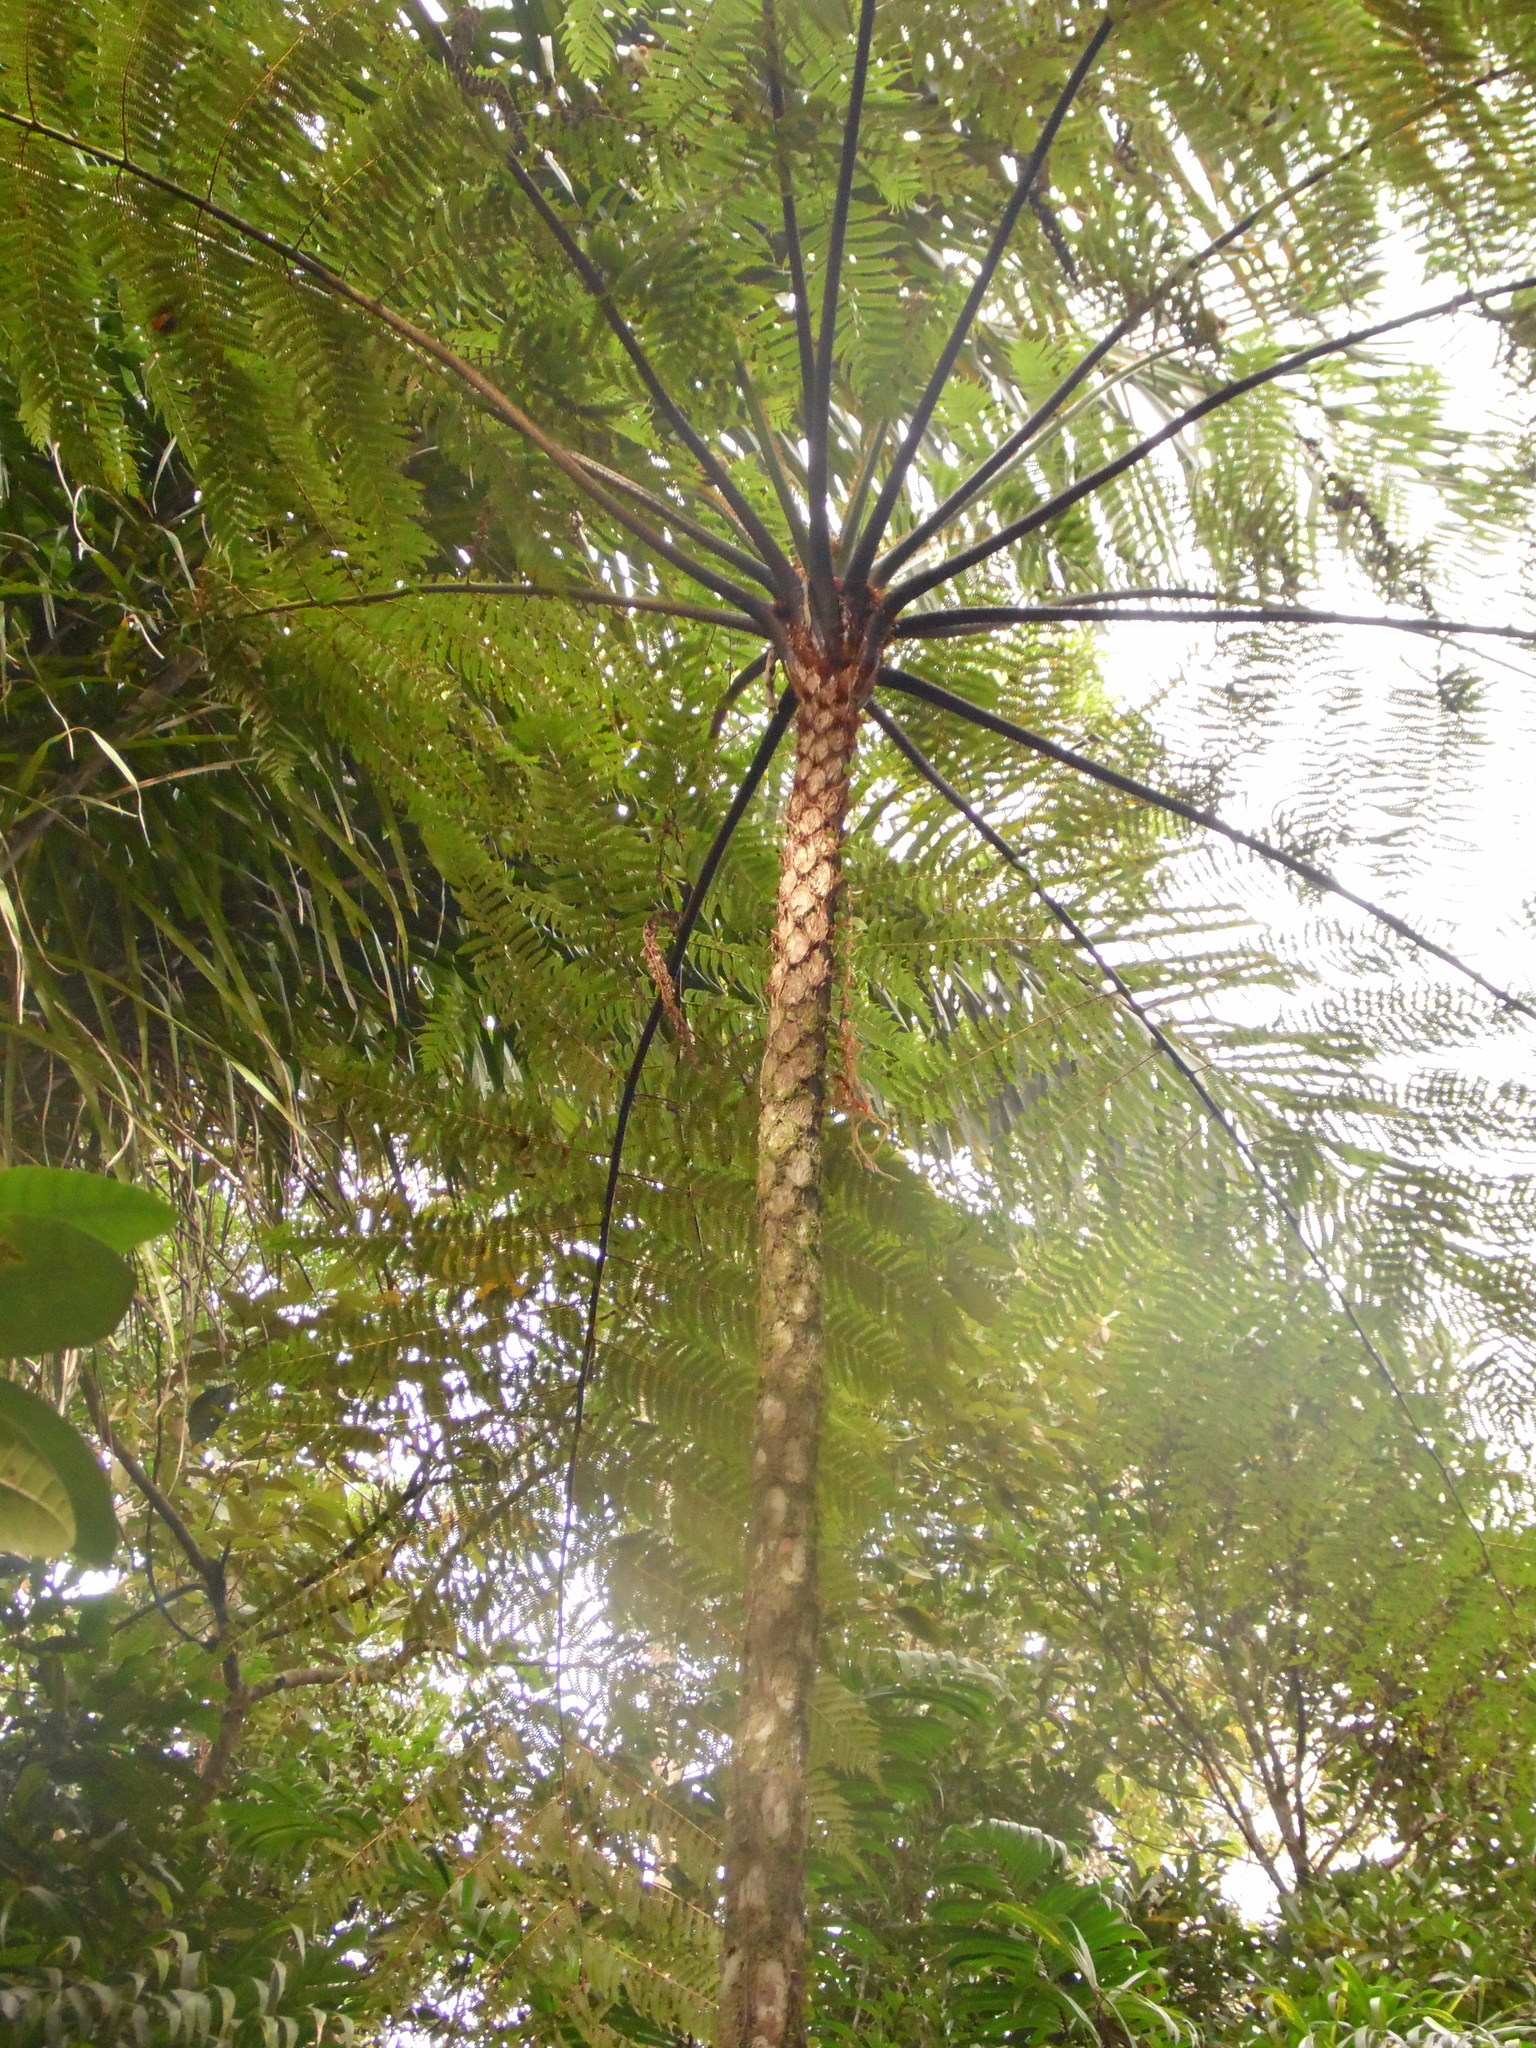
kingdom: Plantae
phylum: Tracheophyta
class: Polypodiopsida
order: Cyatheales
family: Cyatheaceae
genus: Cyathea
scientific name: Cyathea delgadii
